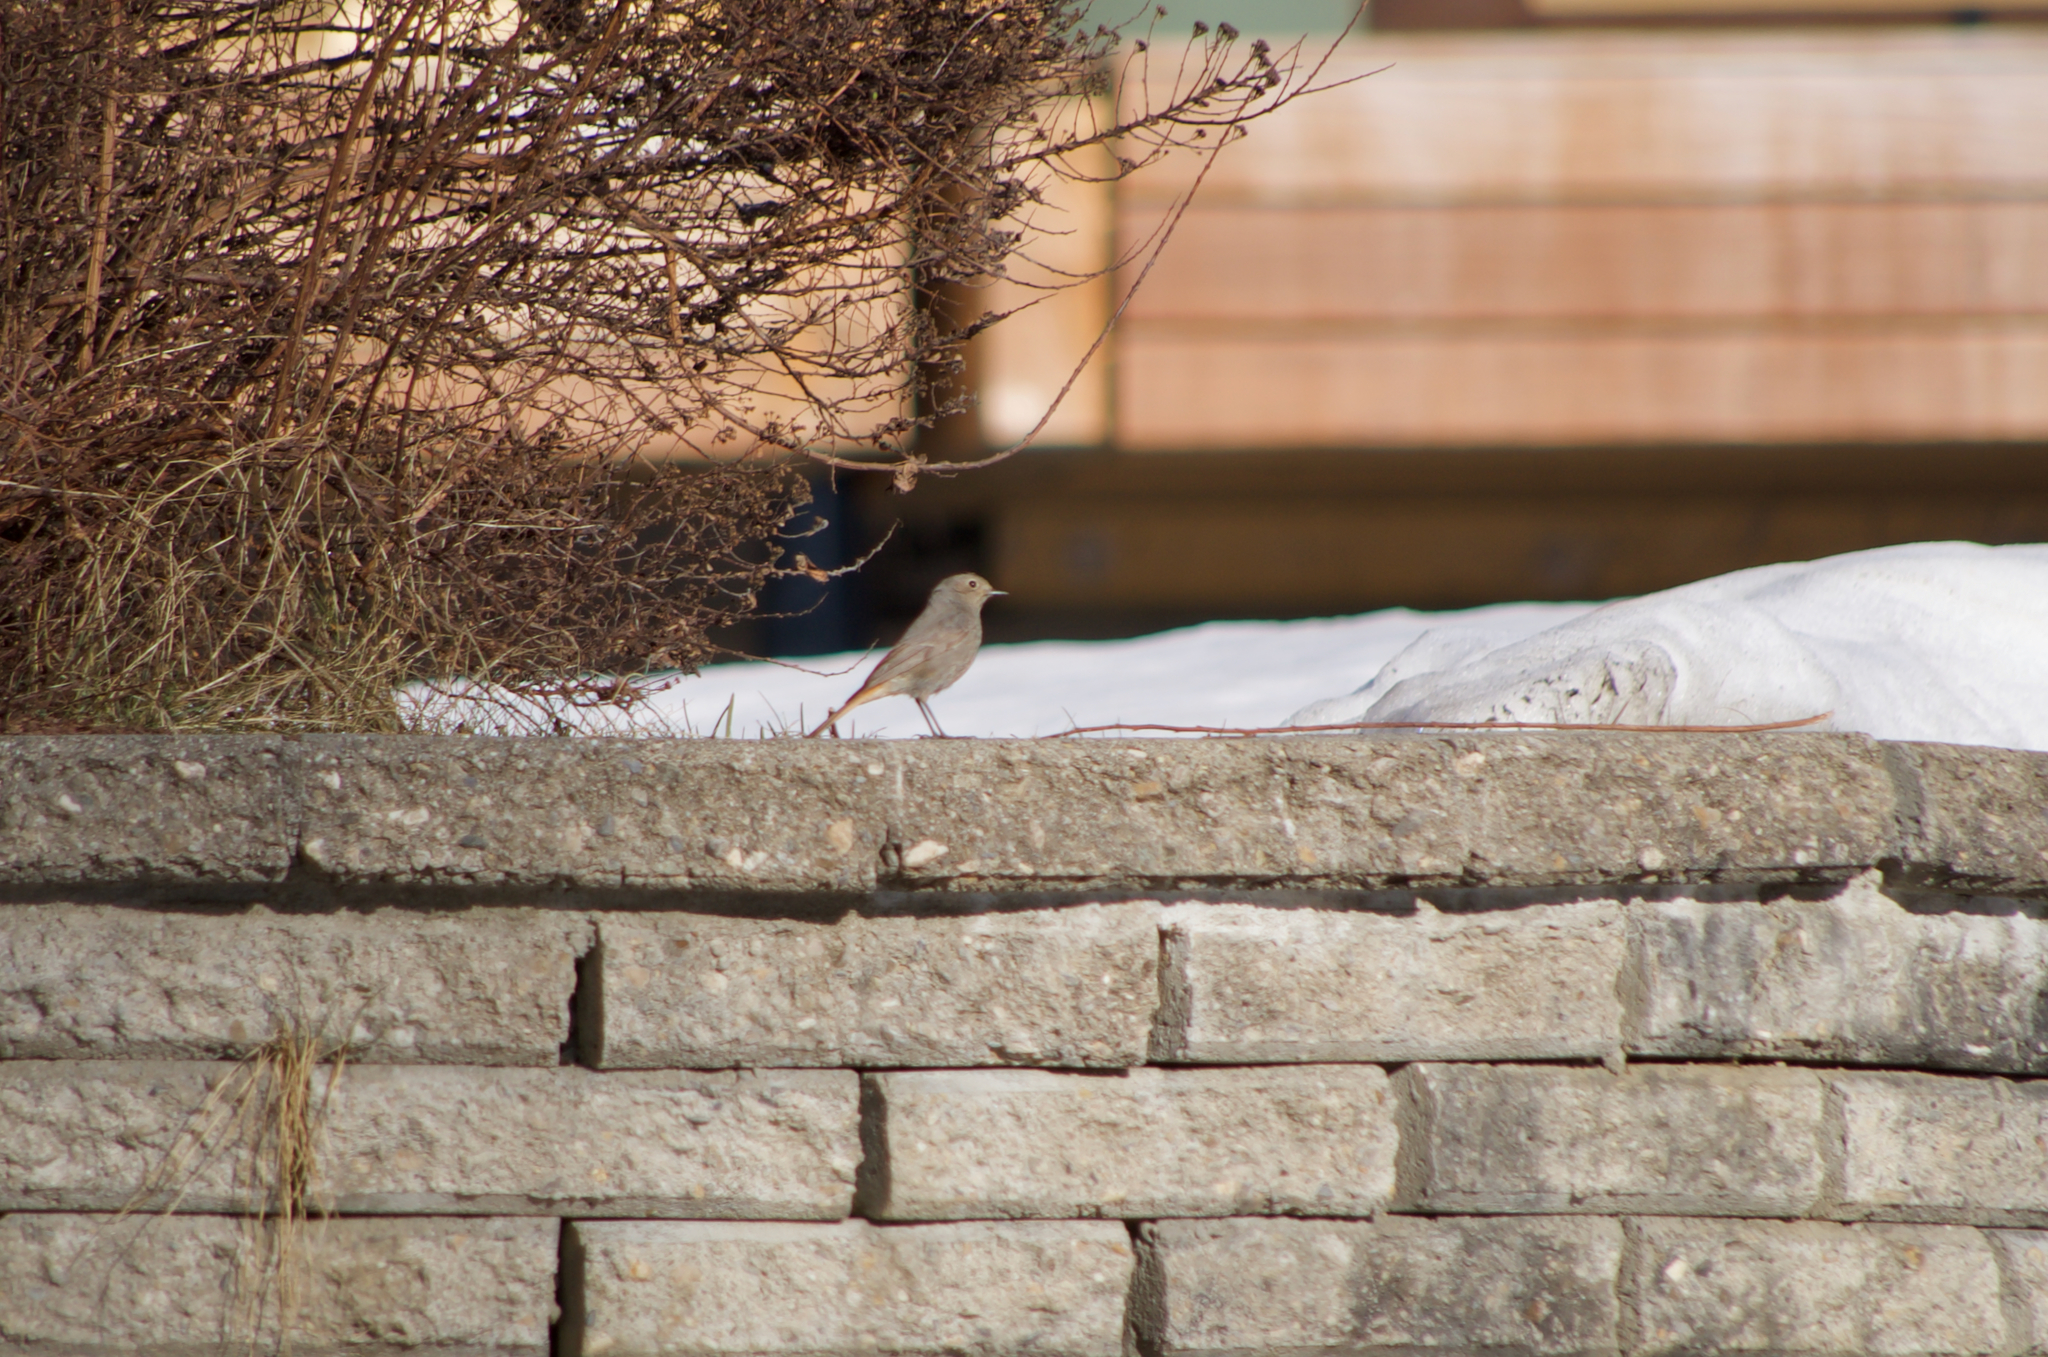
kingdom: Animalia
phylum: Chordata
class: Aves
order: Passeriformes
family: Muscicapidae
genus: Phoenicurus
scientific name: Phoenicurus ochruros
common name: Black redstart
